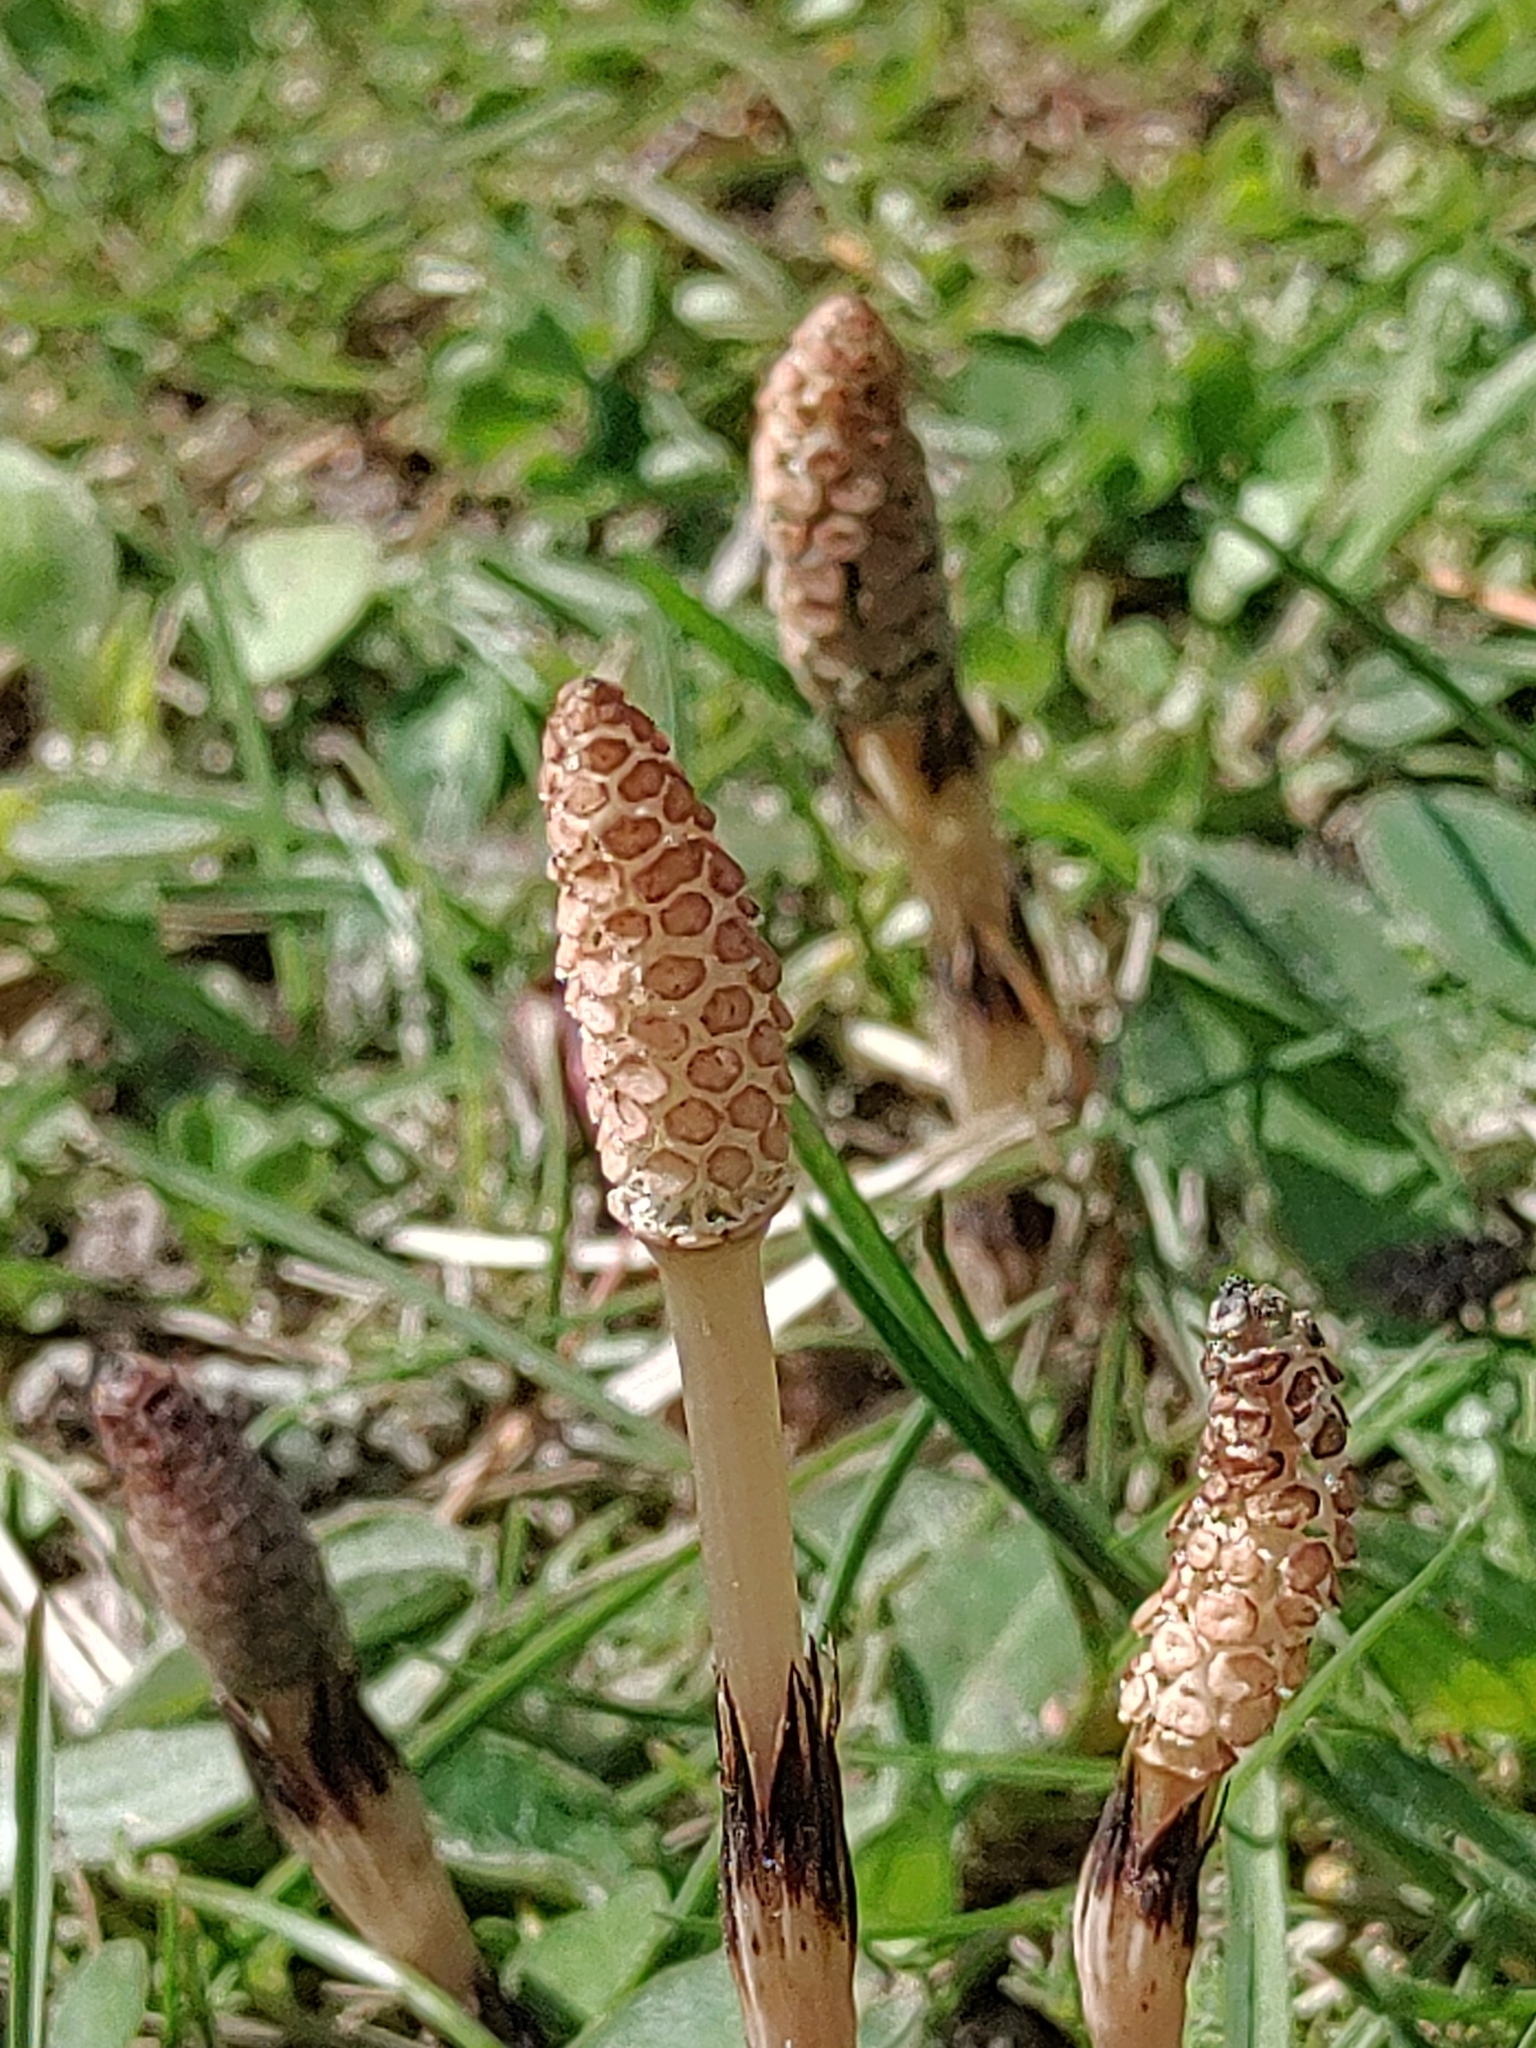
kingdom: Plantae
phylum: Tracheophyta
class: Polypodiopsida
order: Equisetales
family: Equisetaceae
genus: Equisetum
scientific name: Equisetum arvense
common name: Field horsetail
